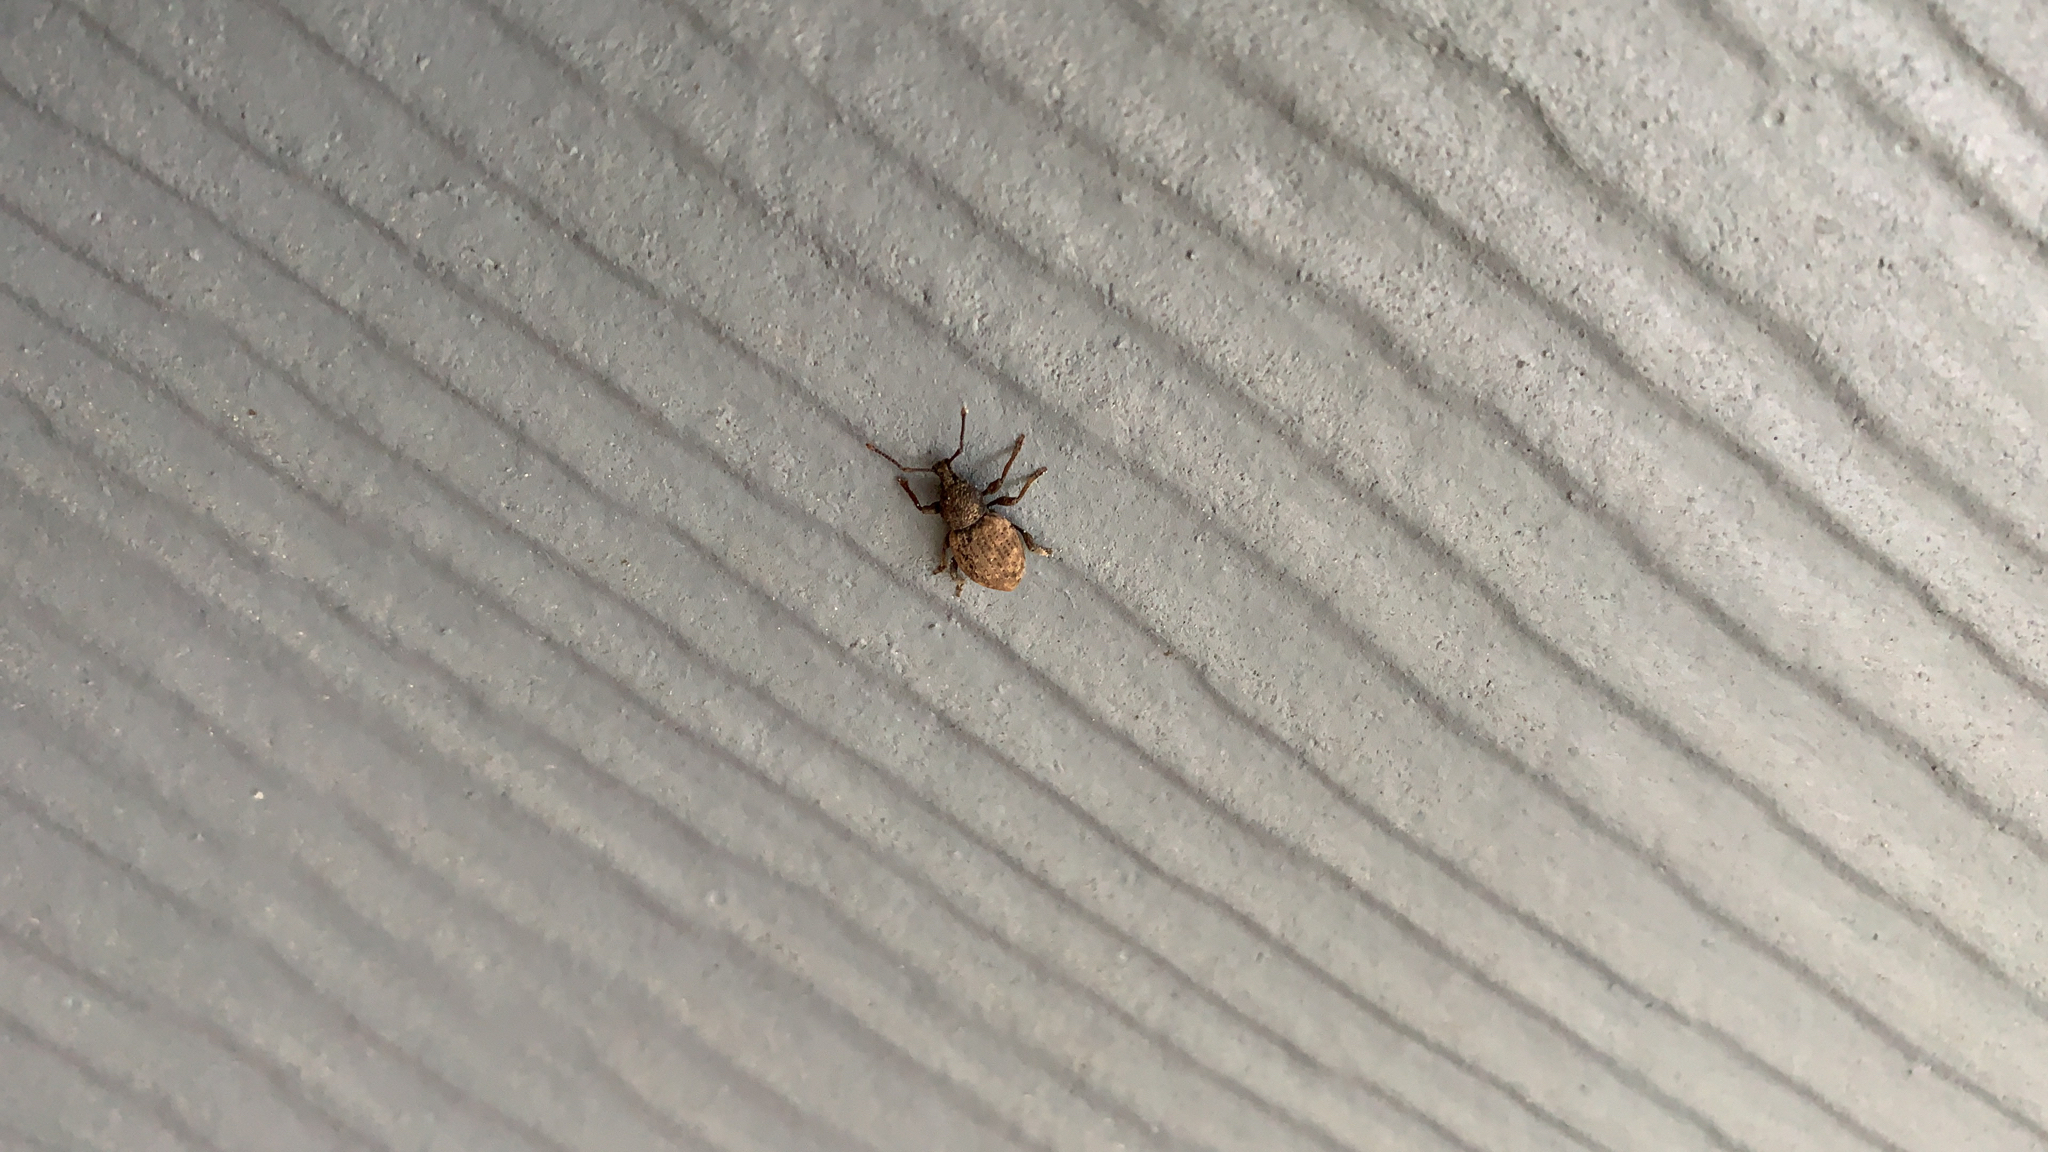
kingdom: Animalia
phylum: Arthropoda
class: Insecta
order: Coleoptera
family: Curculionidae
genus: Otiorhynchus
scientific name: Otiorhynchus raucus
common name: Weevil
